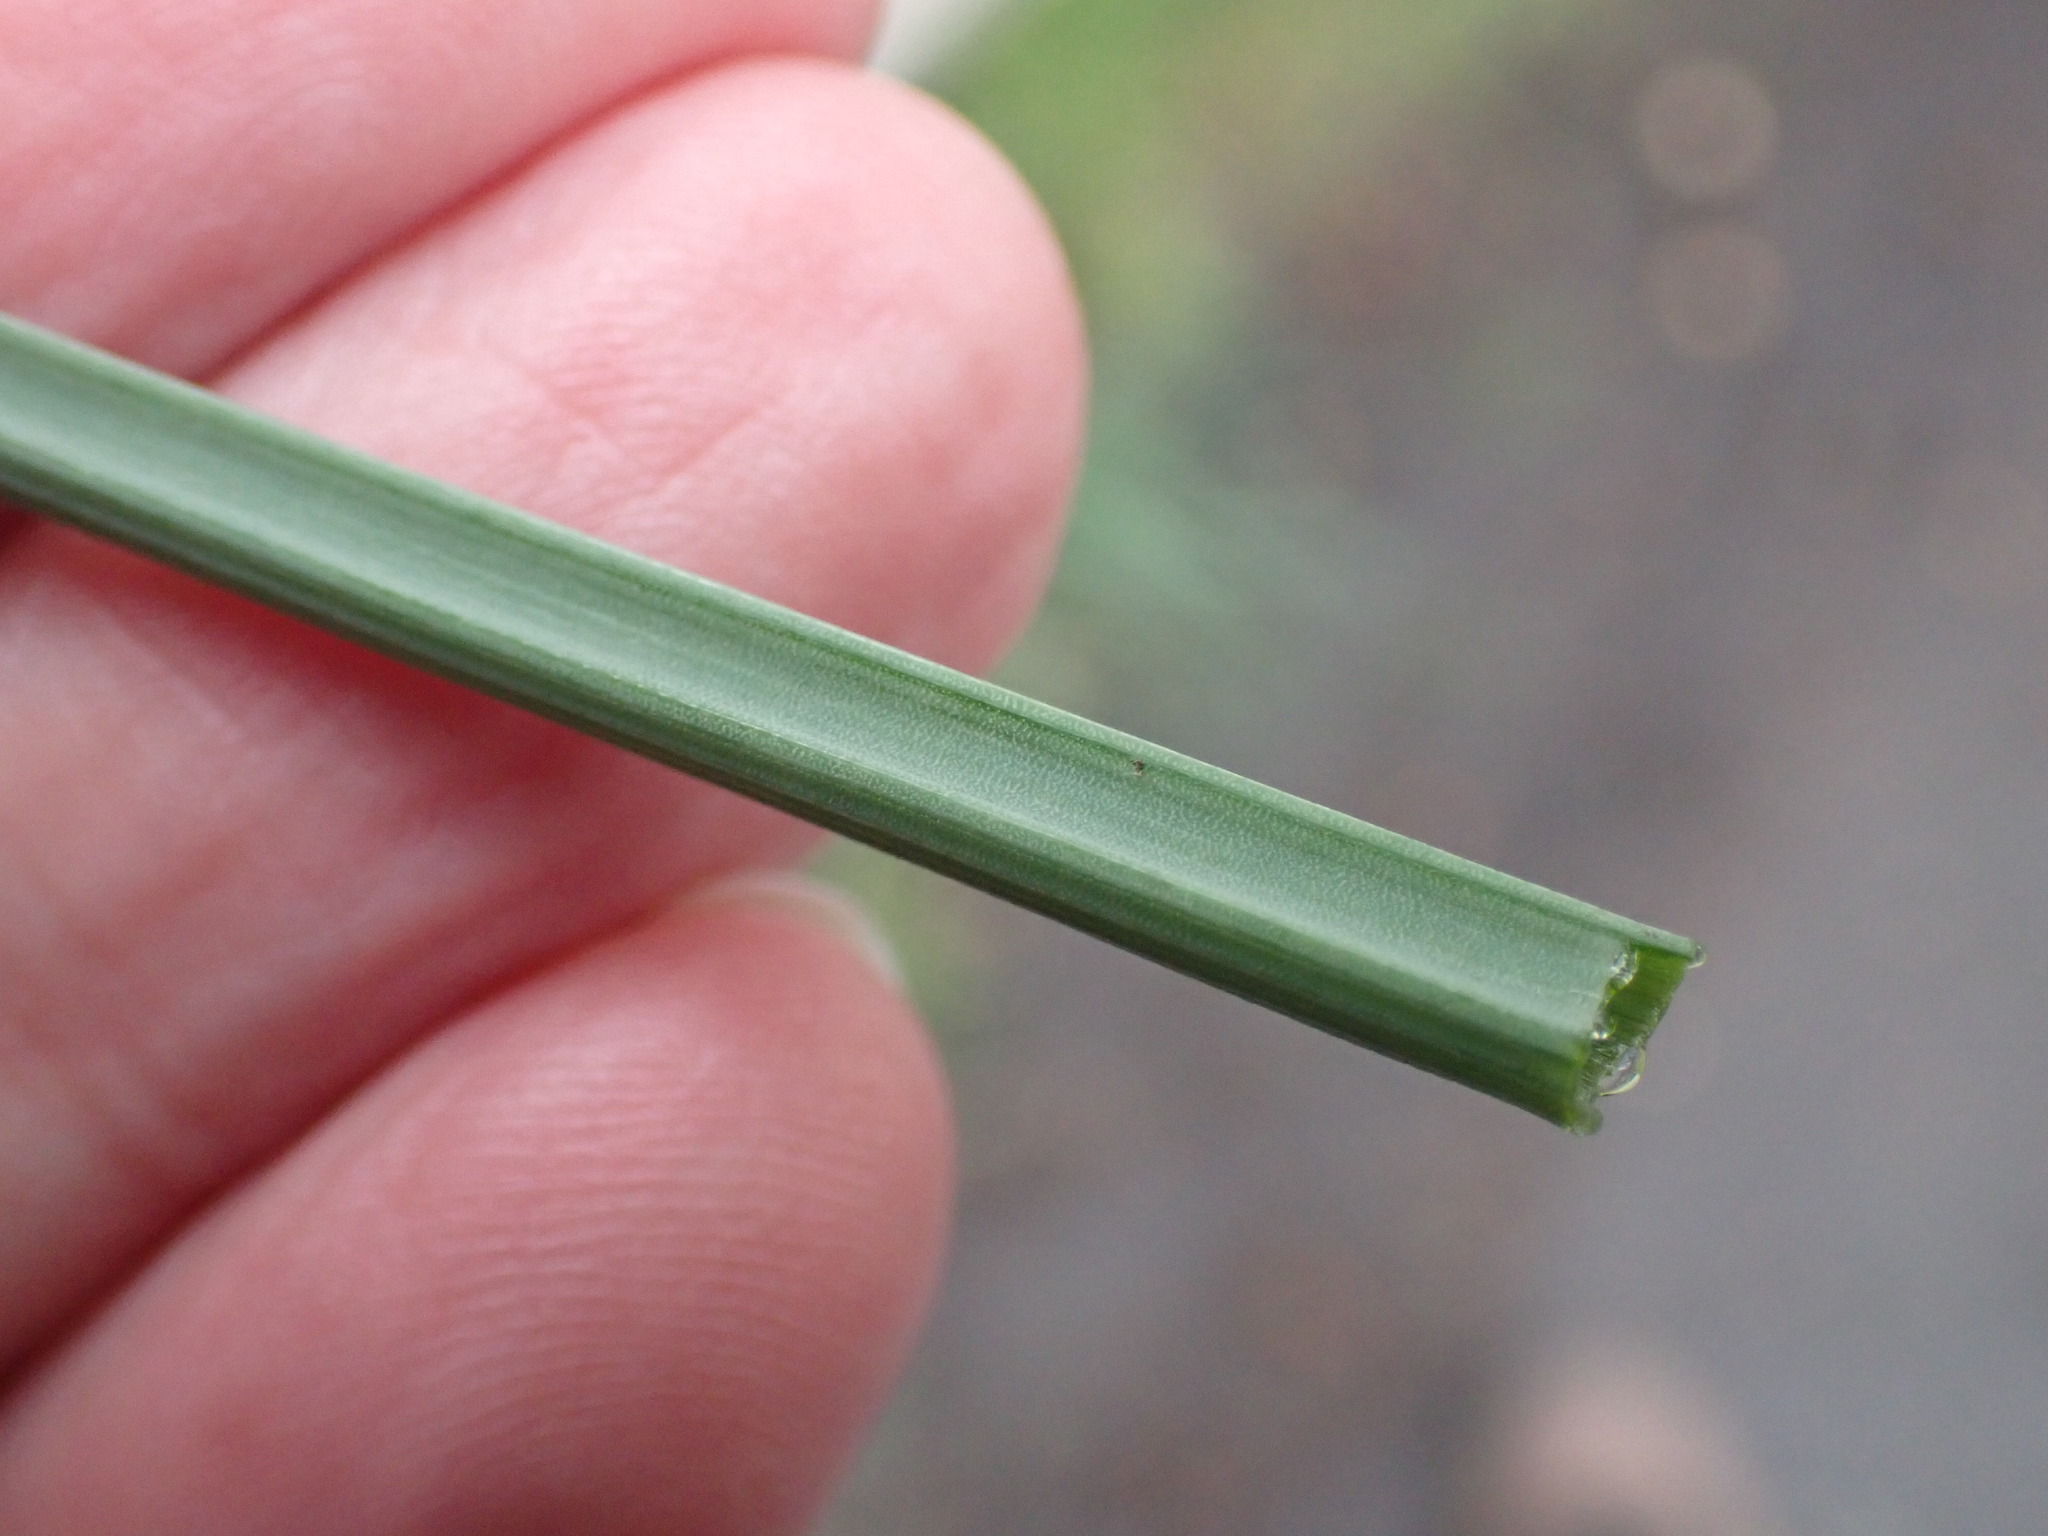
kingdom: Plantae
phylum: Tracheophyta
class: Liliopsida
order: Asparagales
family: Amaryllidaceae
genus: Allium
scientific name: Allium vineale
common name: Crow garlic
